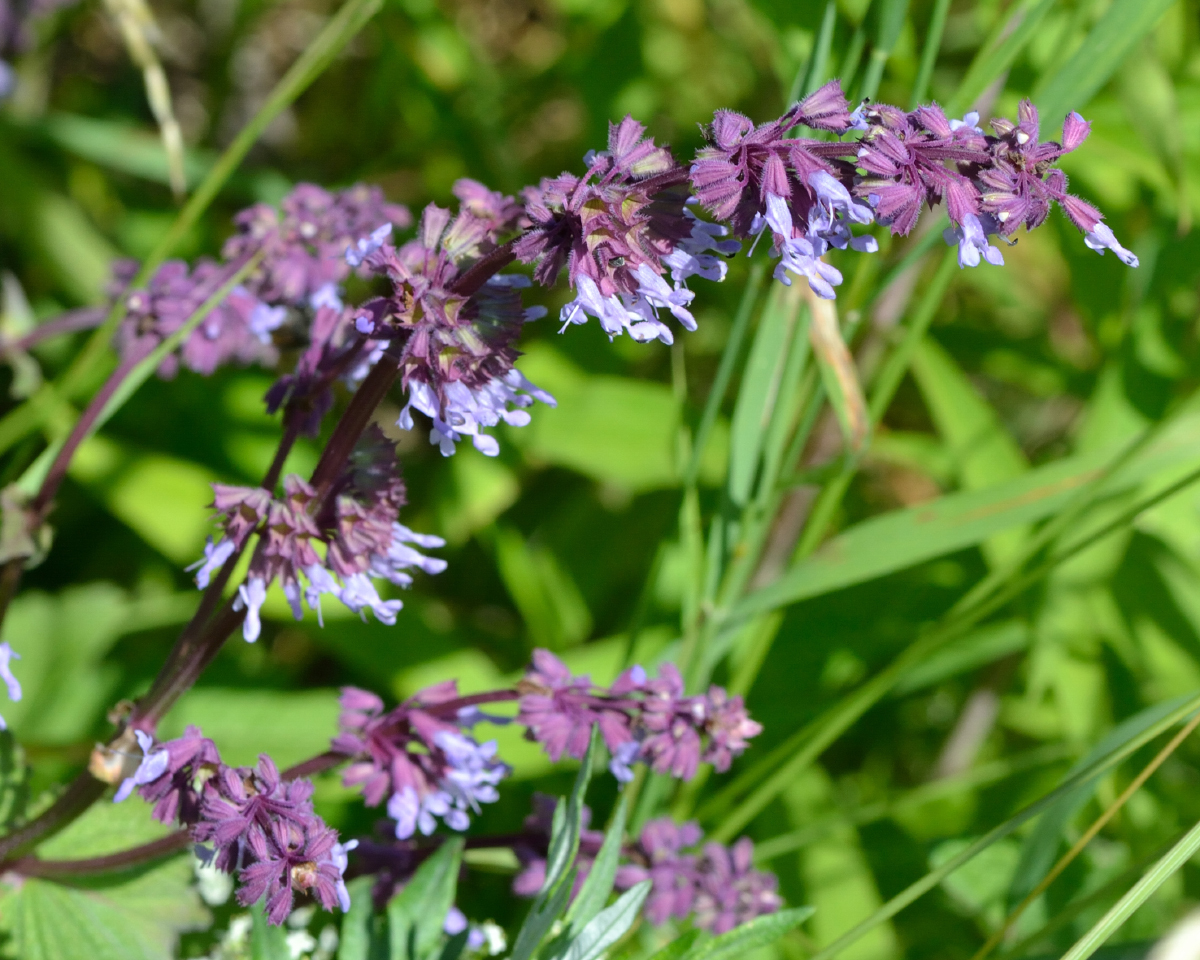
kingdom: Plantae
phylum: Tracheophyta
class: Magnoliopsida
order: Lamiales
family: Lamiaceae
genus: Salvia
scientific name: Salvia verticillata
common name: Whorled clary
